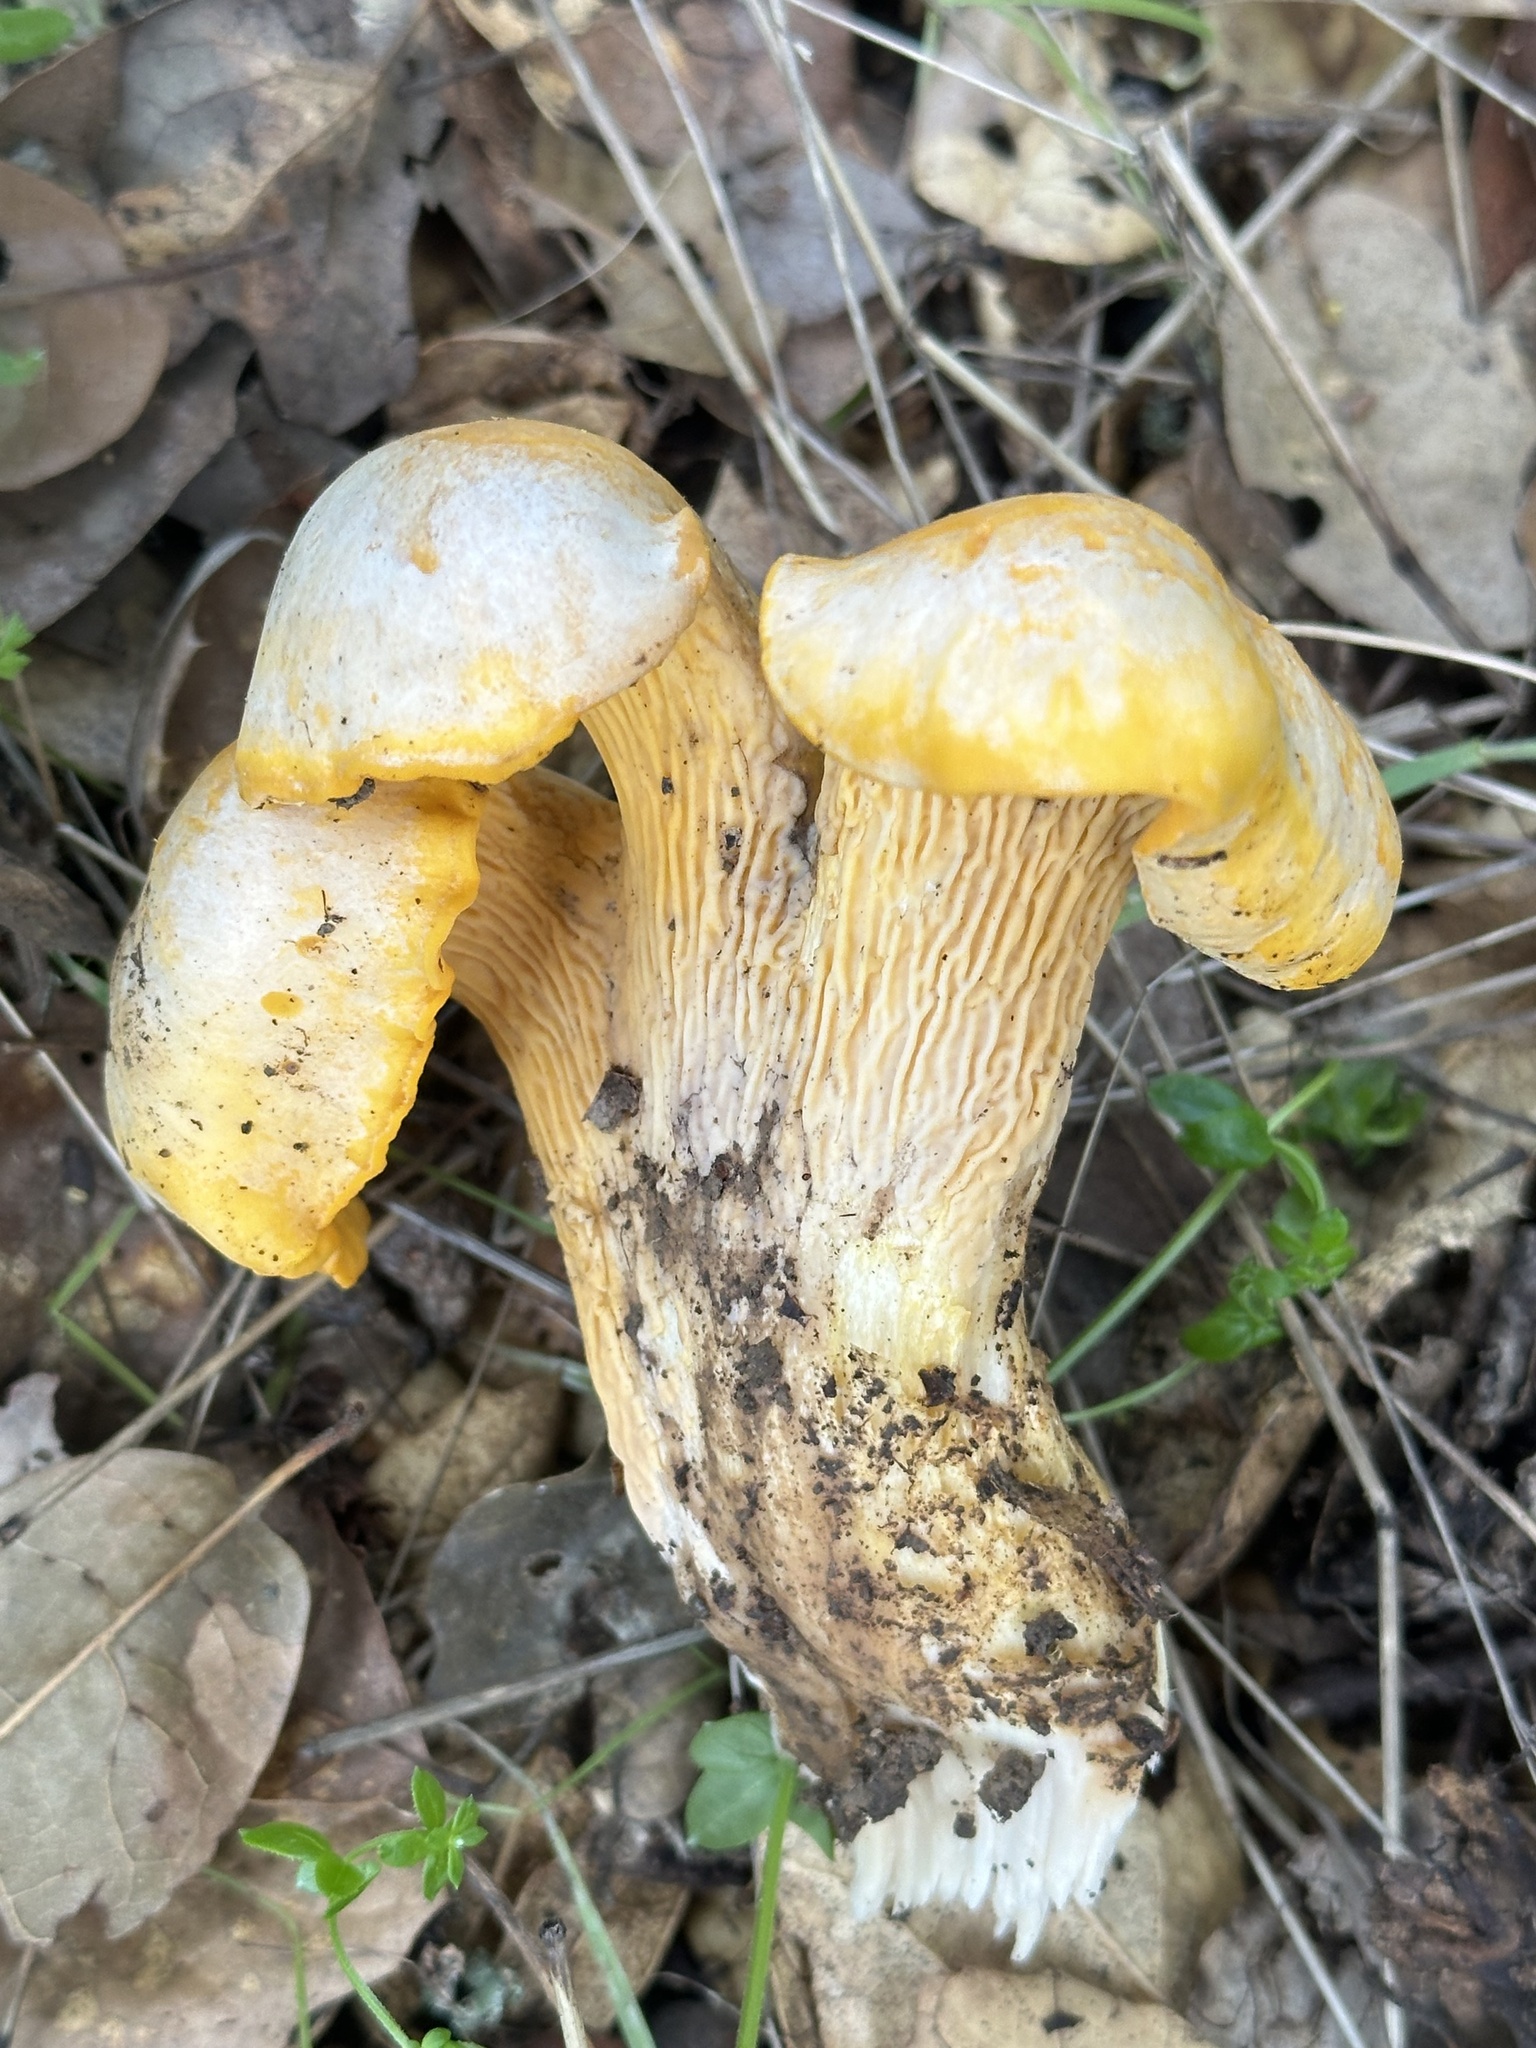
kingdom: Fungi
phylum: Basidiomycota
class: Agaricomycetes
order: Cantharellales
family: Hydnaceae
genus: Cantharellus
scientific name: Cantharellus californicus
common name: California golden chanterelle
